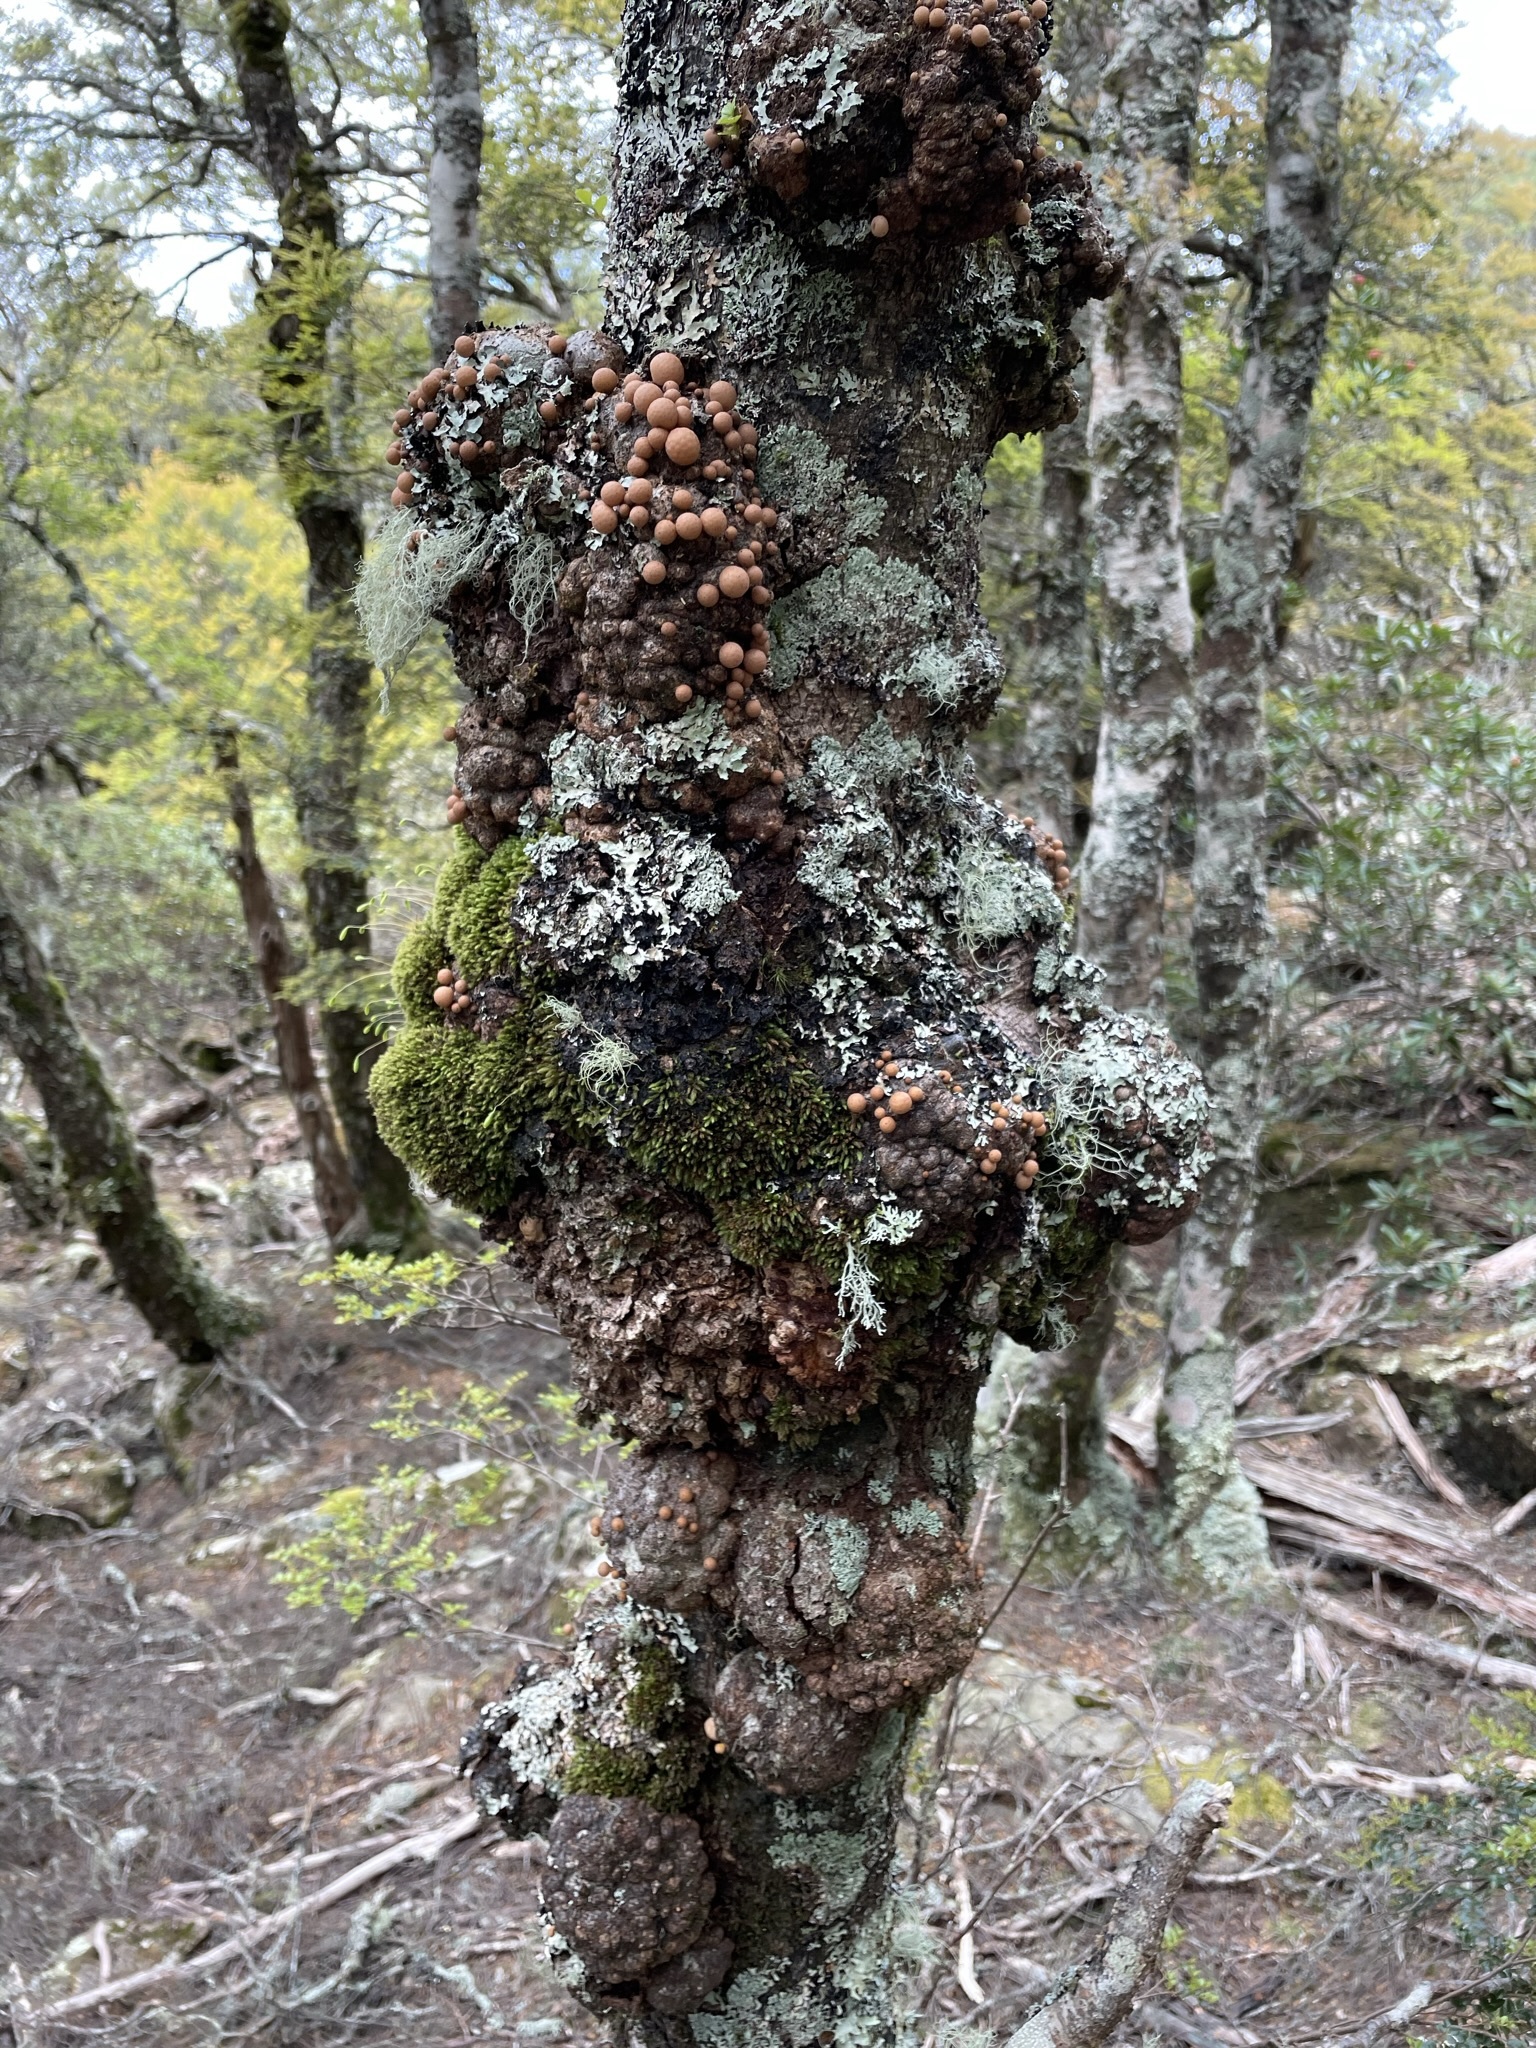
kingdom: Fungi
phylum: Ascomycota
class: Leotiomycetes
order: Cyttariales
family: Cyttariaceae
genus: Cyttaria
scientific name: Cyttaria gunnii
